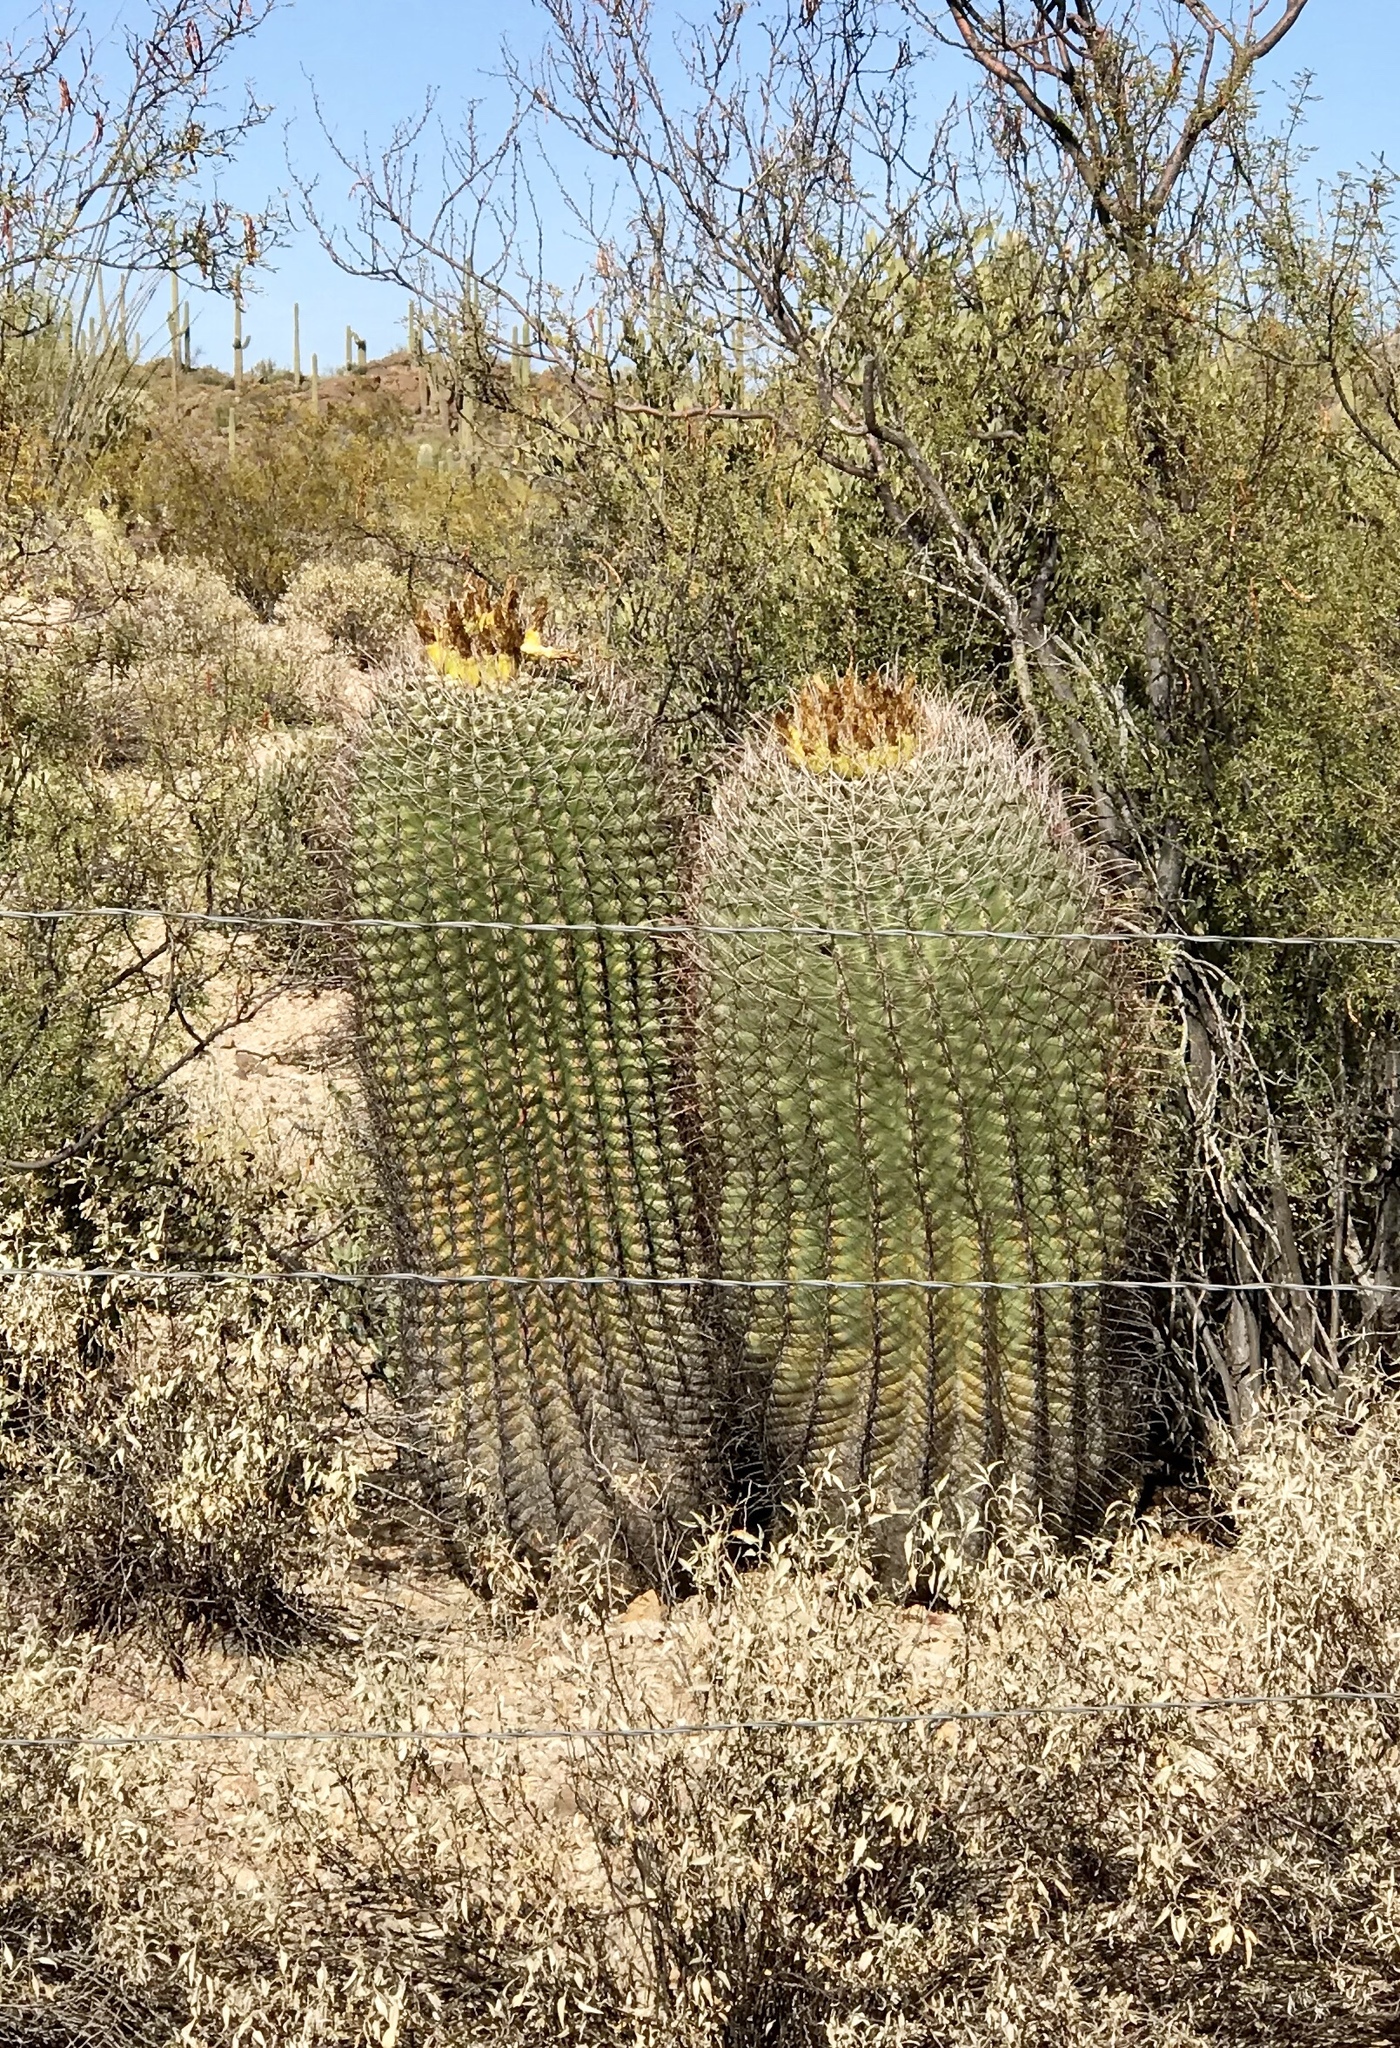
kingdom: Plantae
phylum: Tracheophyta
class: Magnoliopsida
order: Caryophyllales
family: Cactaceae
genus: Ferocactus
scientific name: Ferocactus wislizeni
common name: Candy barrel cactus
